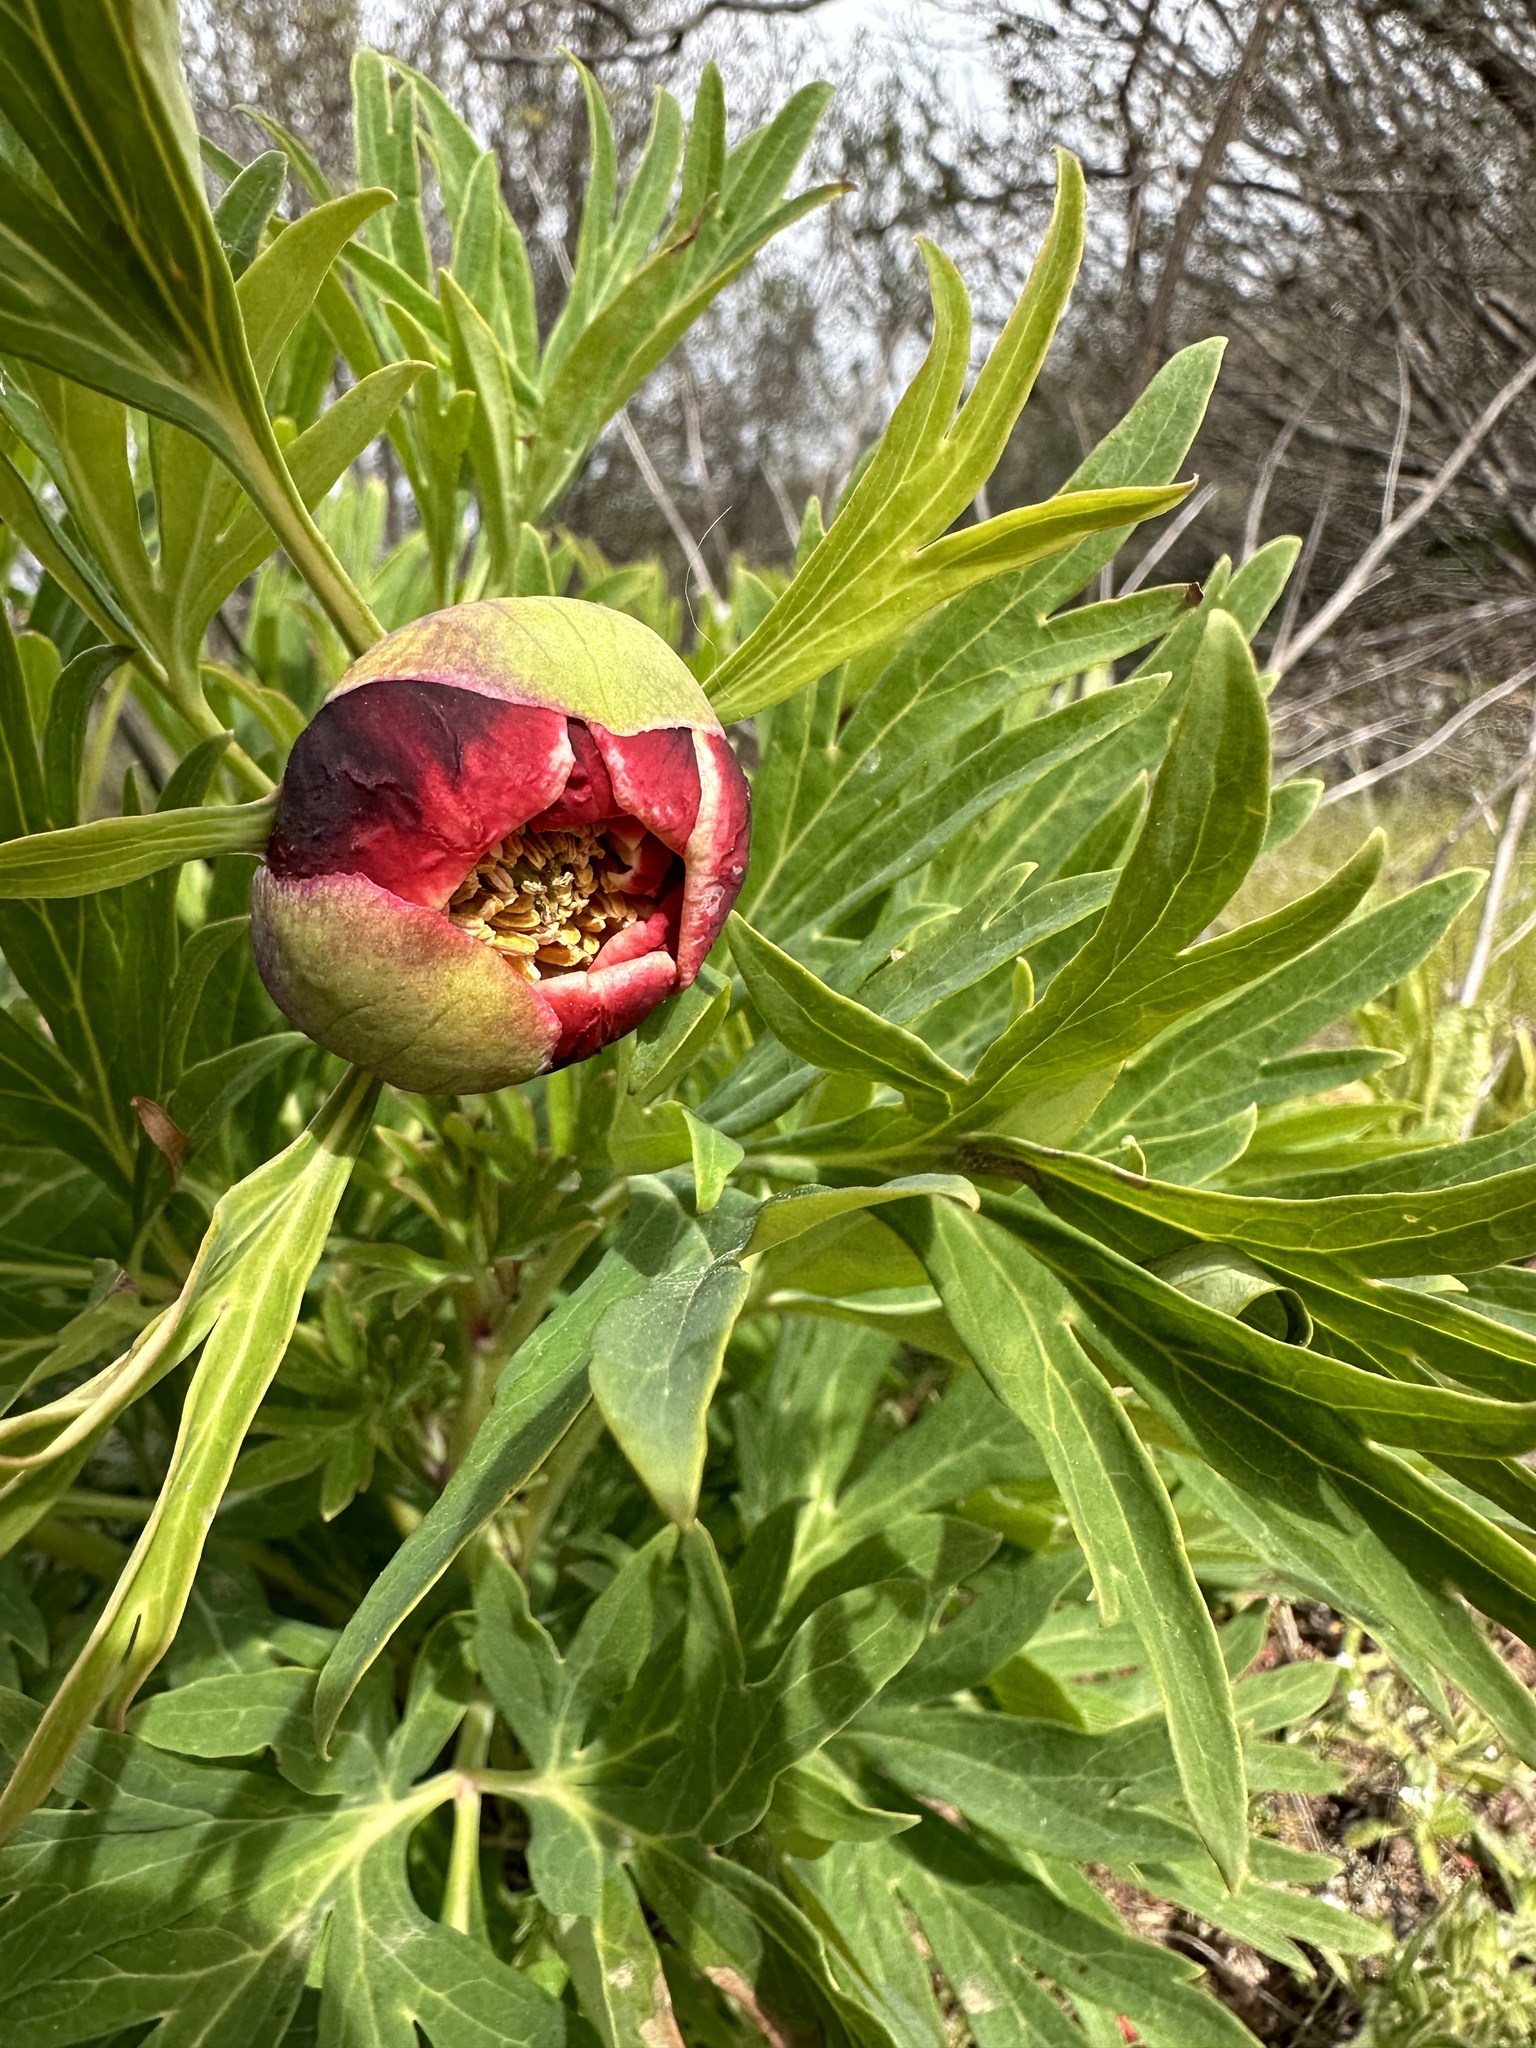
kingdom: Plantae
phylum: Tracheophyta
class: Magnoliopsida
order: Saxifragales
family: Paeoniaceae
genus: Paeonia
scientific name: Paeonia californica
